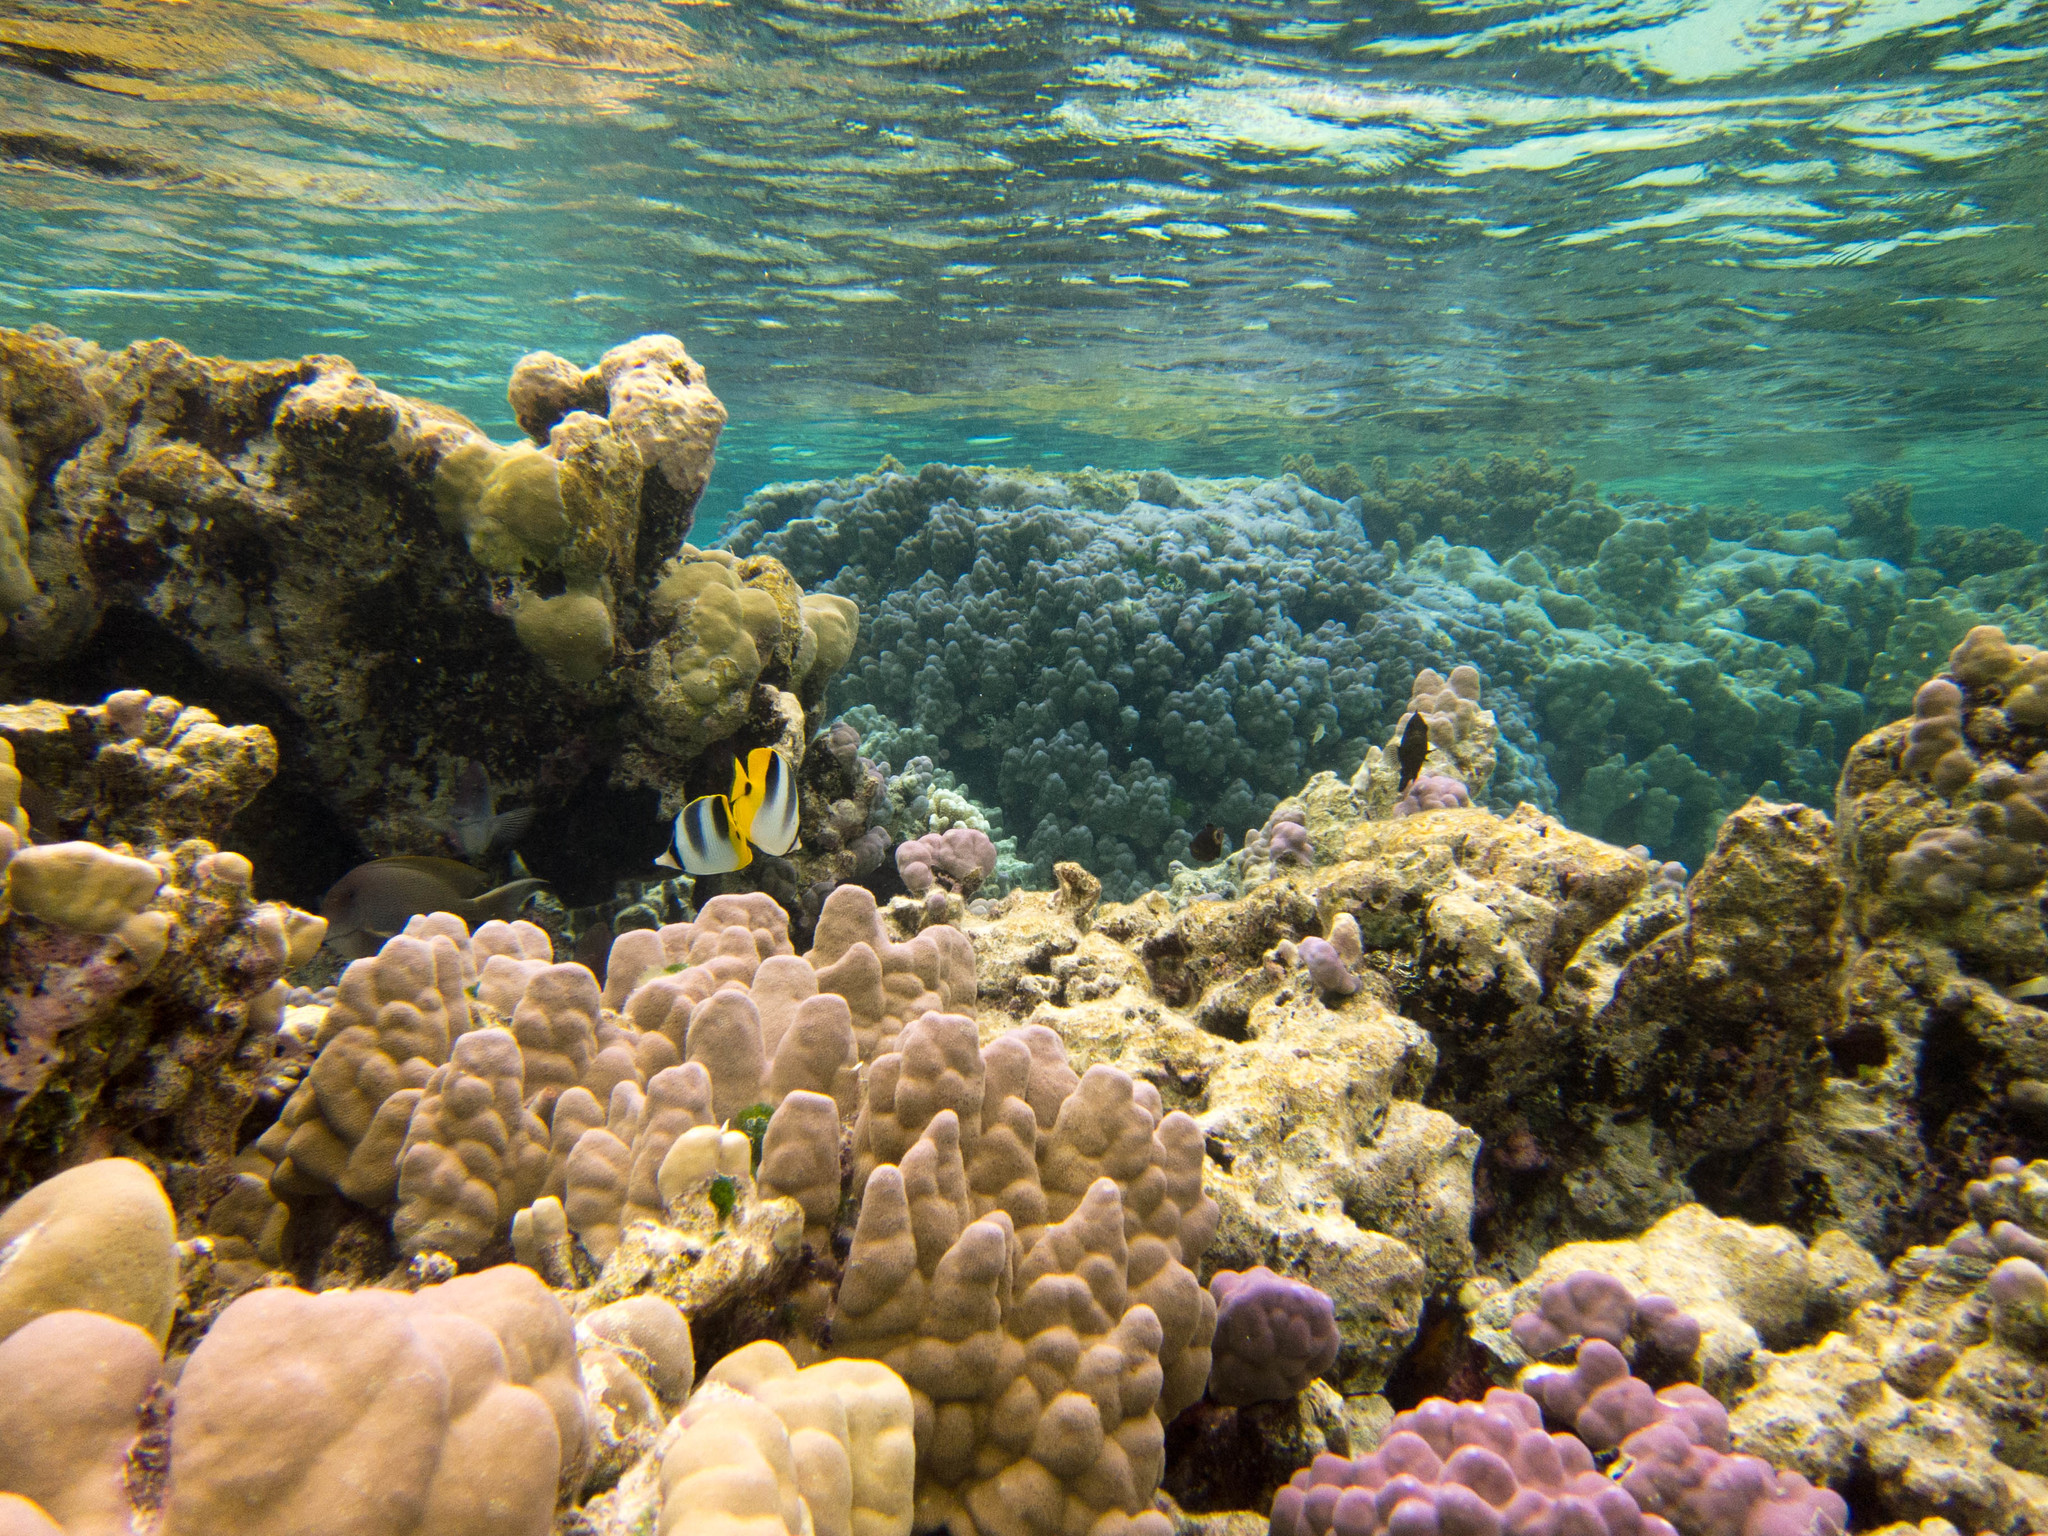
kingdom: Animalia
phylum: Chordata
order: Perciformes
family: Chaetodontidae
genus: Chaetodon
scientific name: Chaetodon ulietensis
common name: Pacific double-saddle butterflyfish
